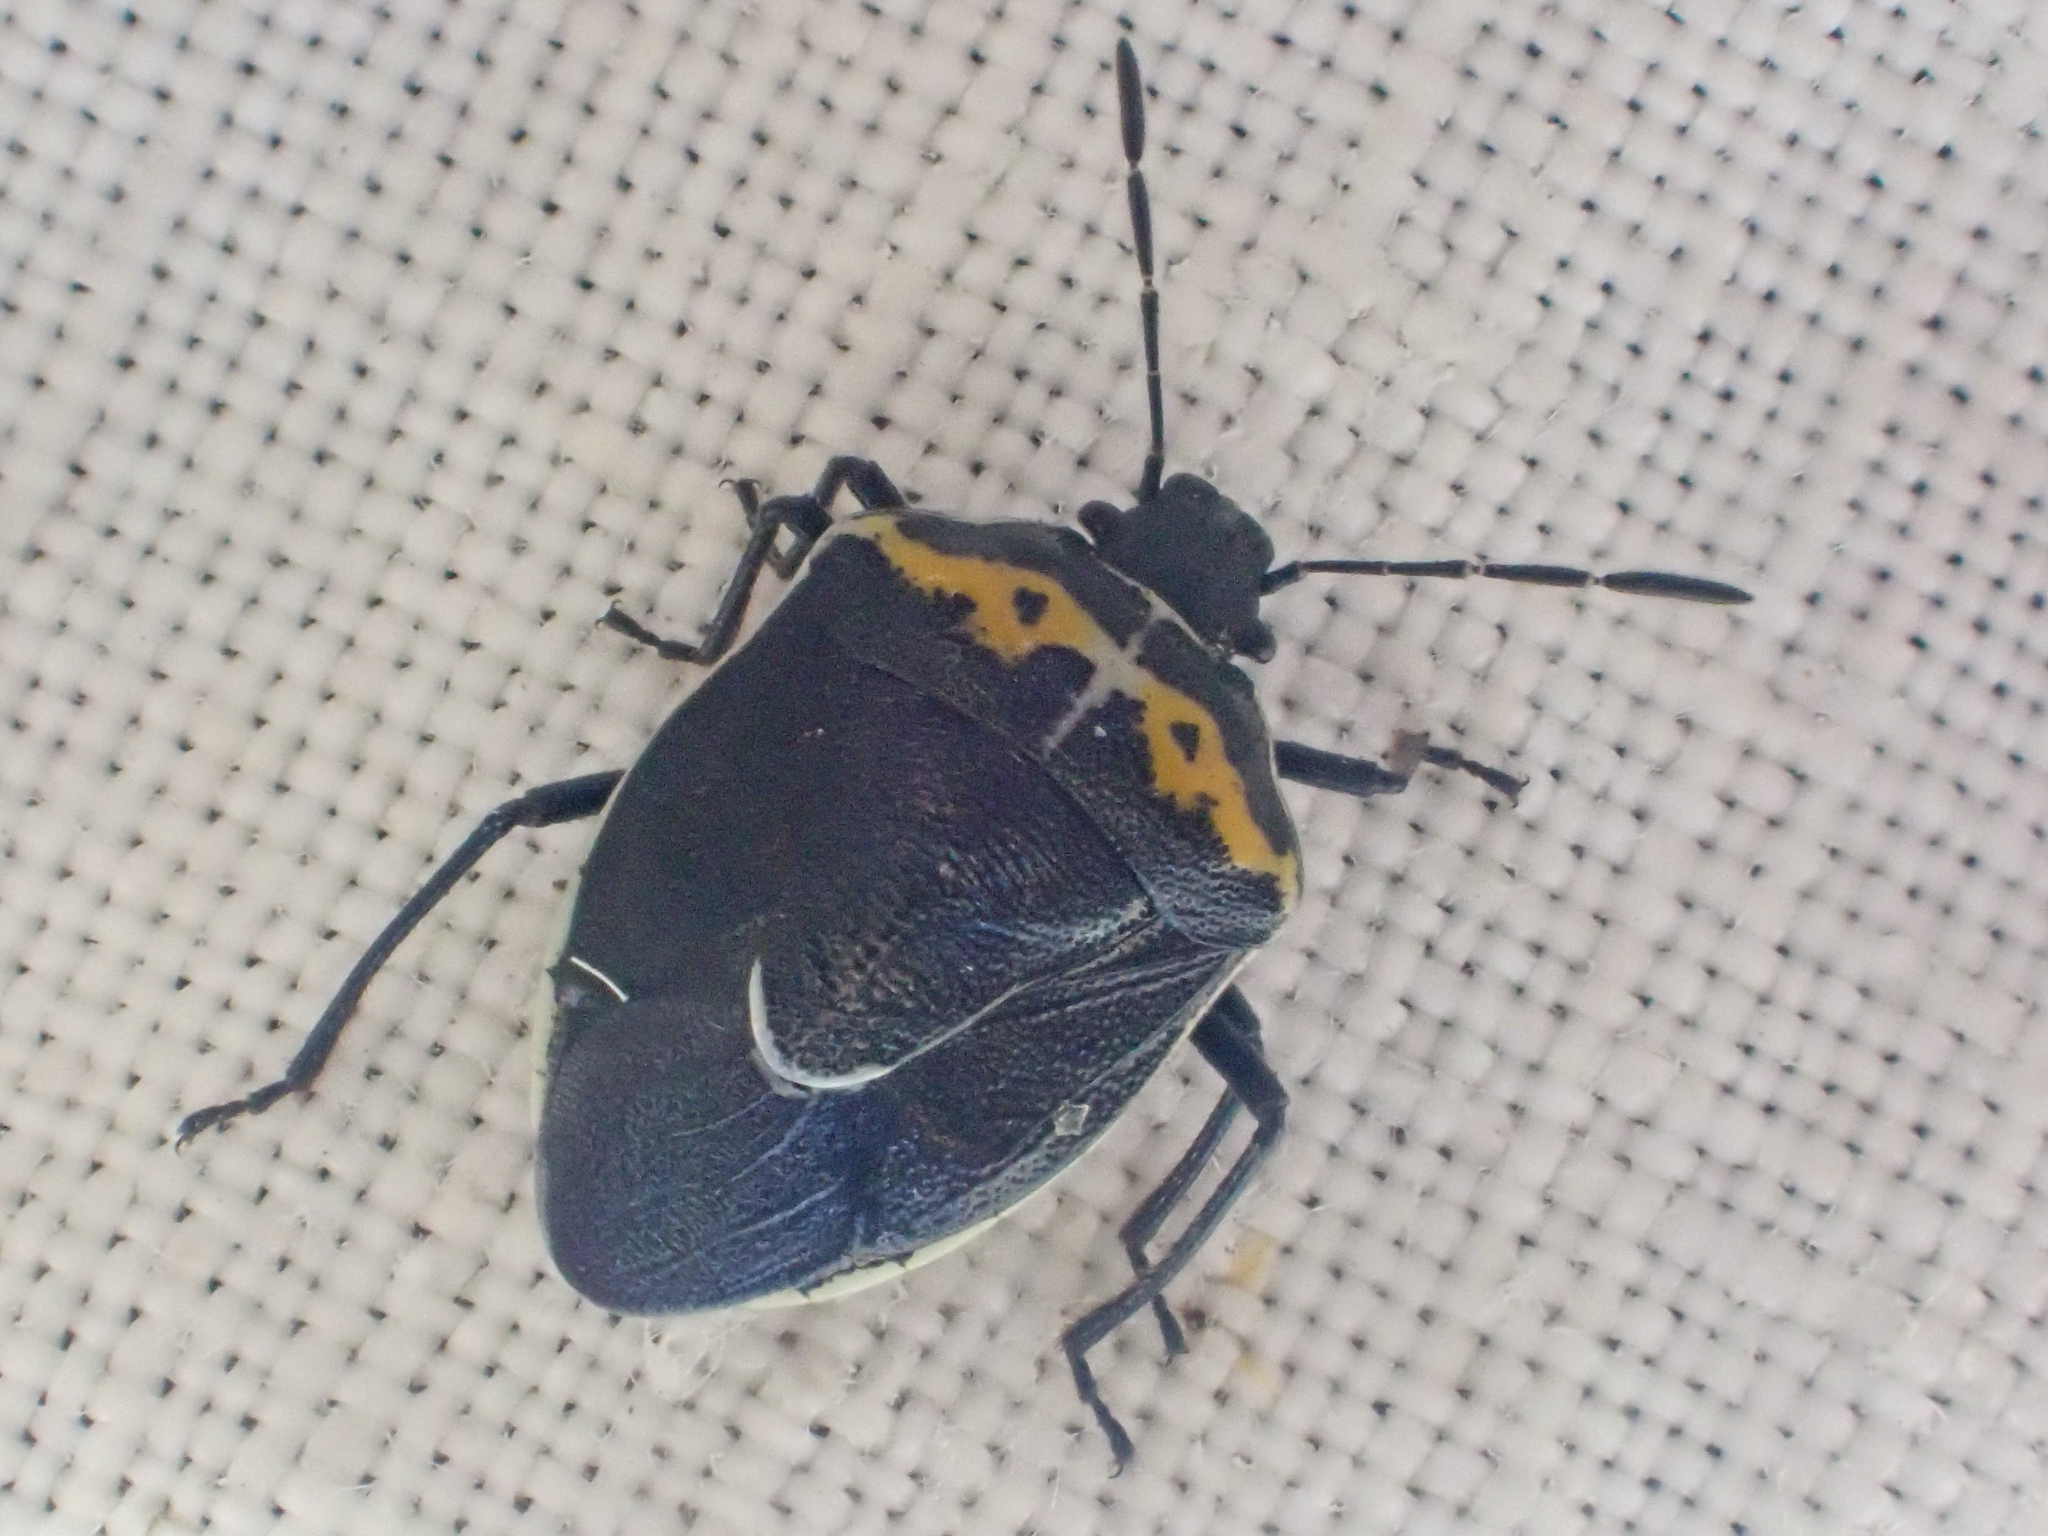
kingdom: Animalia
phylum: Arthropoda
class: Insecta
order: Hemiptera
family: Pentatomidae
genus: Cosmopepla
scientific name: Cosmopepla conspicillaris
